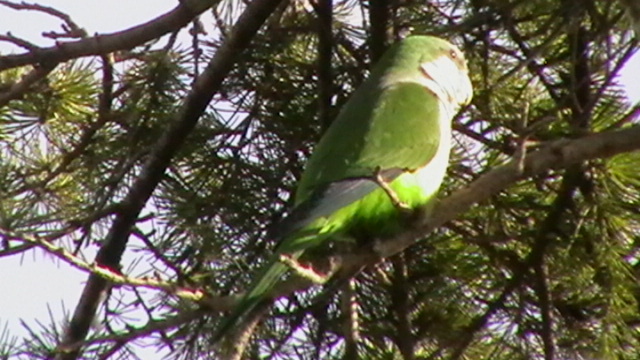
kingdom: Animalia
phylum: Chordata
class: Aves
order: Psittaciformes
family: Psittacidae
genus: Myiopsitta
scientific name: Myiopsitta monachus
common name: Monk parakeet
